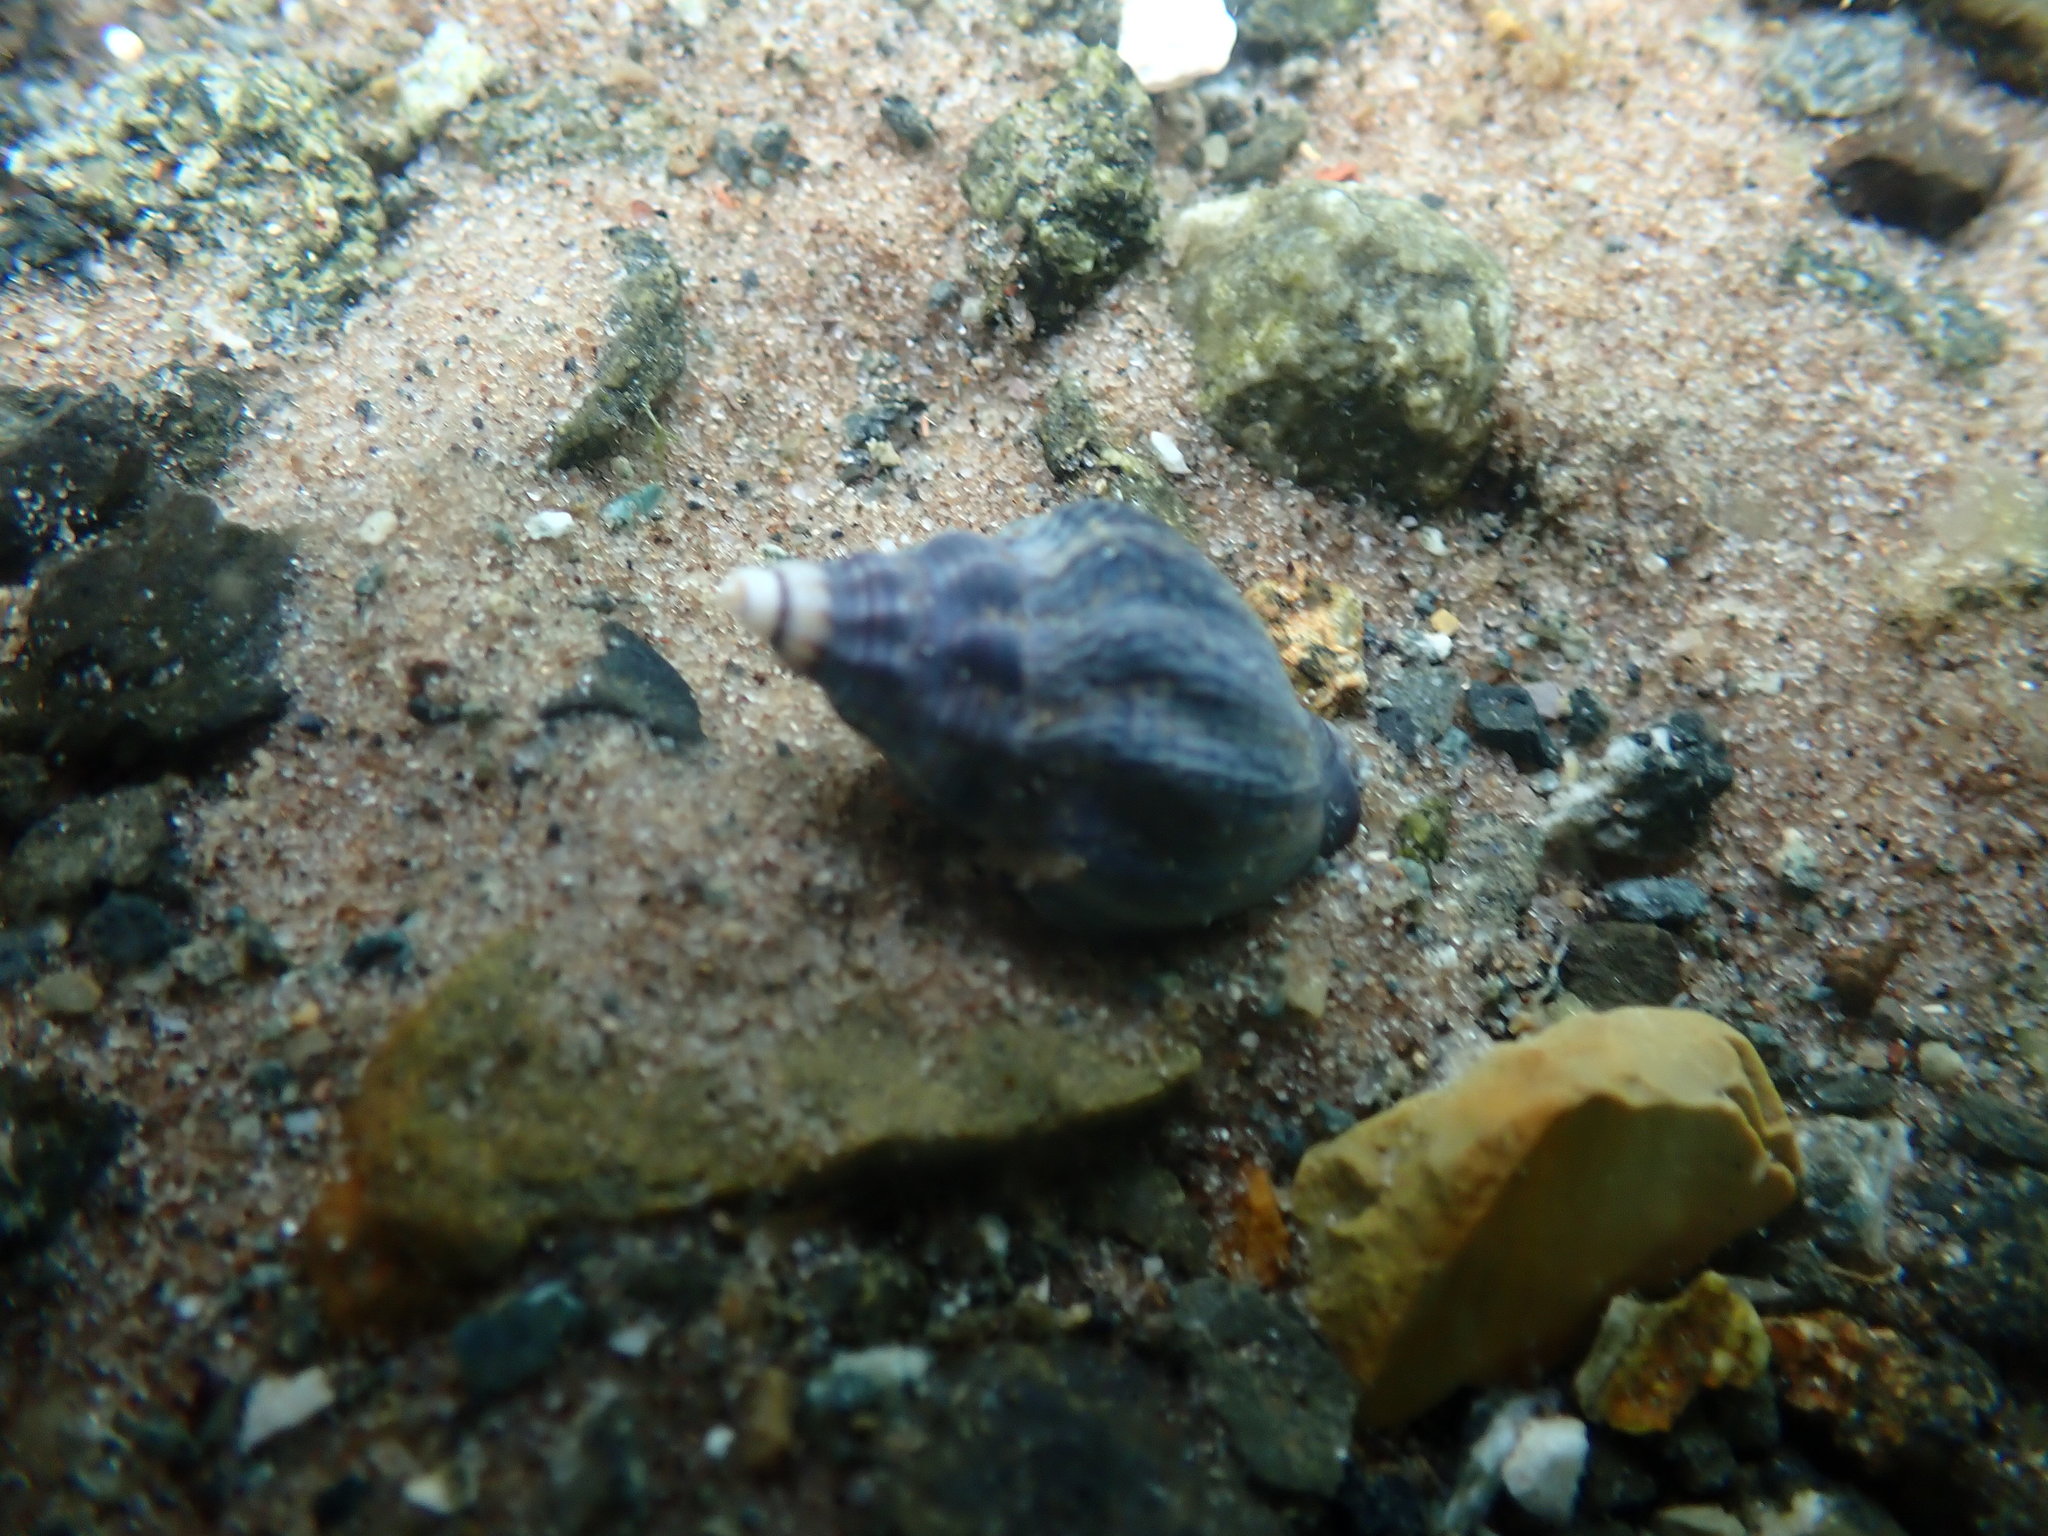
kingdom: Animalia
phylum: Mollusca
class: Gastropoda
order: Neogastropoda
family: Cominellidae
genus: Cominella
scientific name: Cominella virgata
